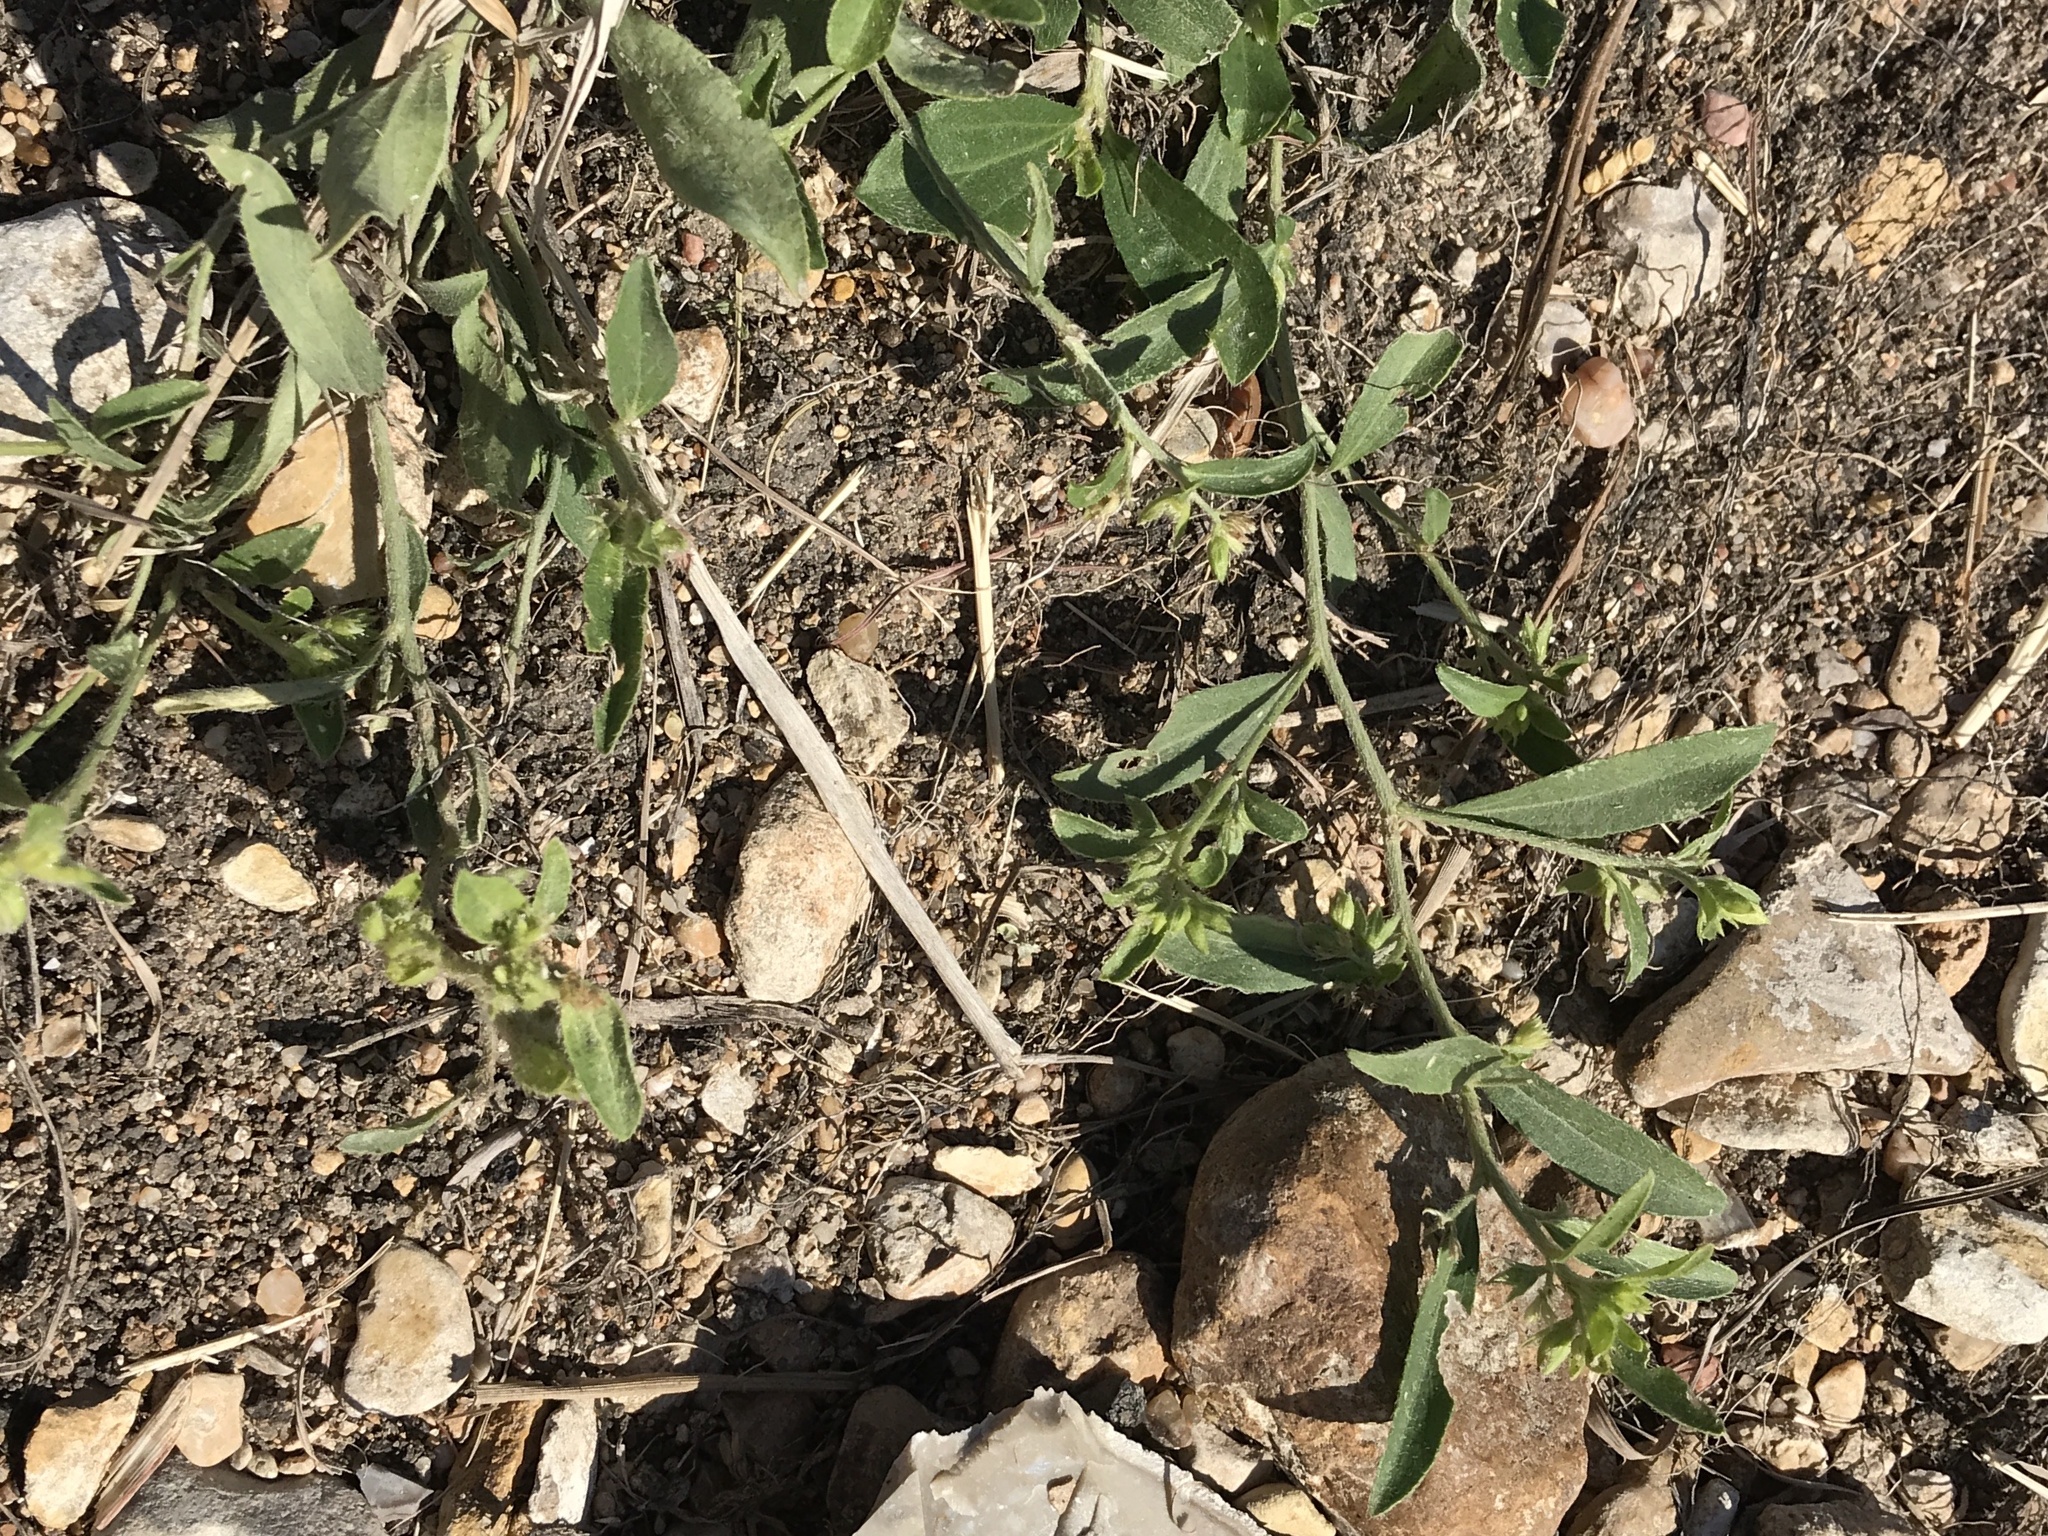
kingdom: Plantae
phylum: Tracheophyta
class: Magnoliopsida
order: Malpighiales
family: Euphorbiaceae
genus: Ditaxis
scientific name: Ditaxis humilis
